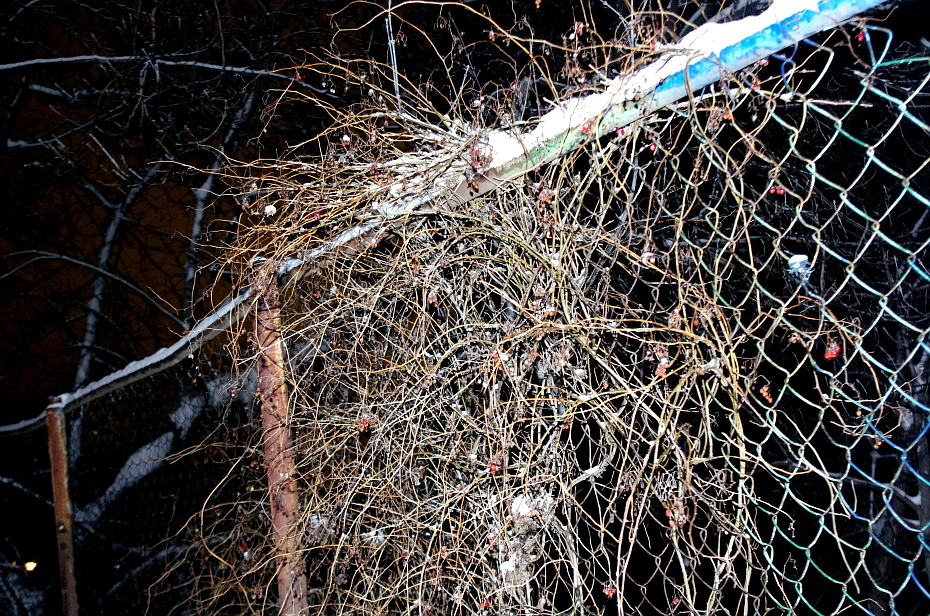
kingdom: Plantae
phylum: Tracheophyta
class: Magnoliopsida
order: Solanales
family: Solanaceae
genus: Solanum
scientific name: Solanum dulcamara
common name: Climbing nightshade
